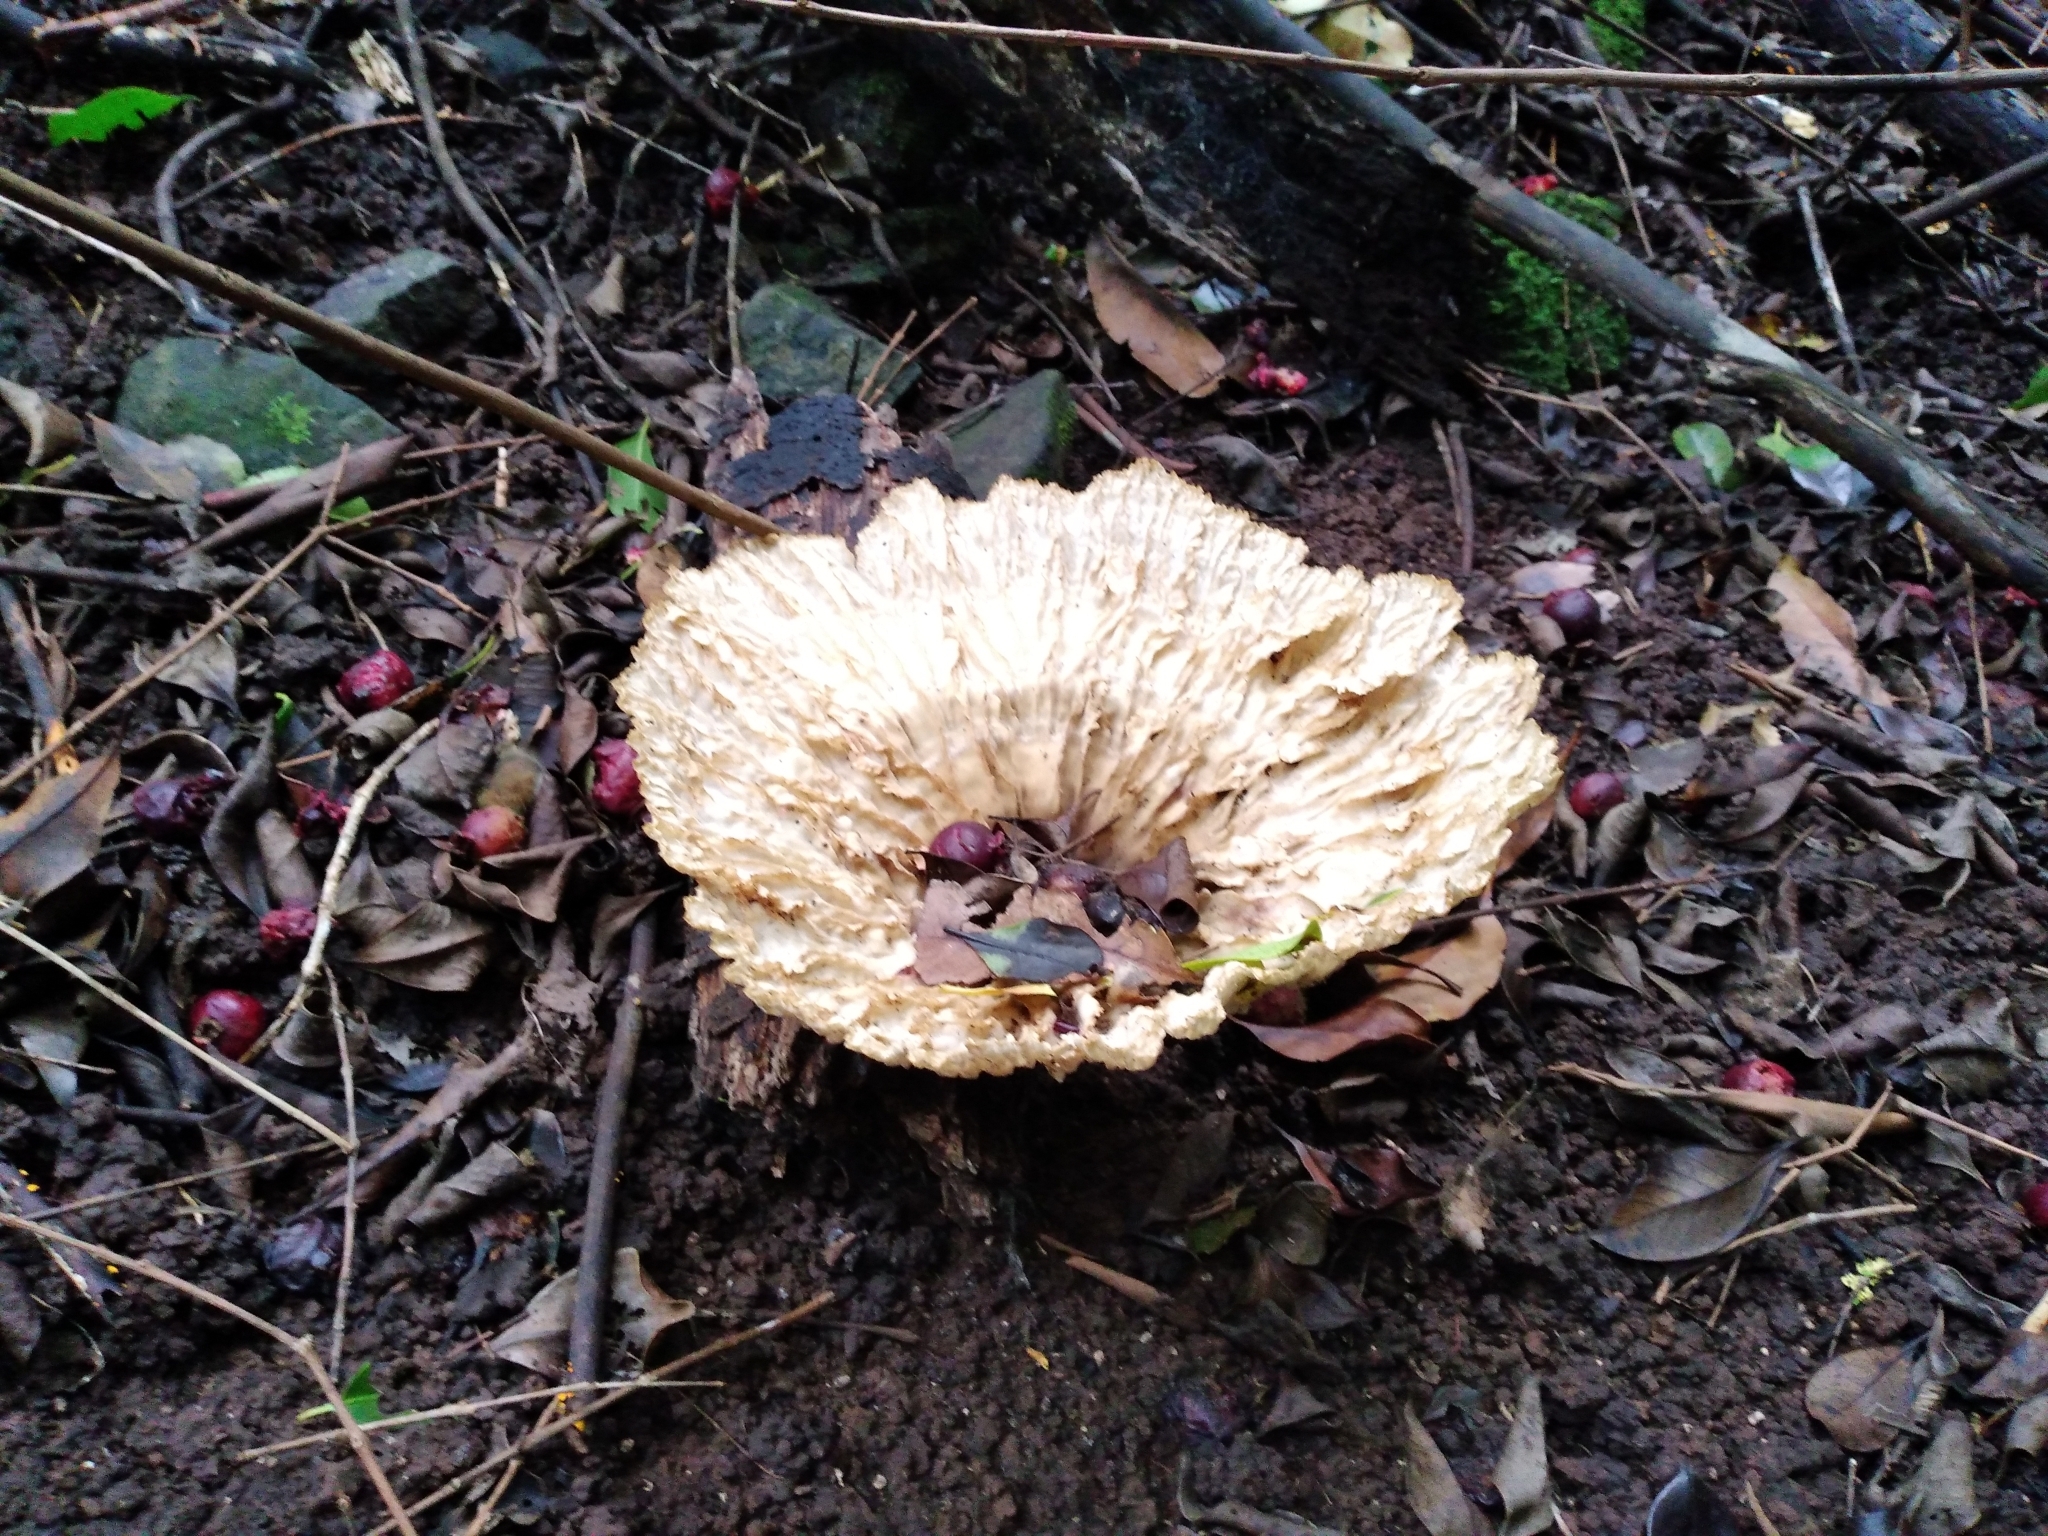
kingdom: Fungi
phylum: Basidiomycota
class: Agaricomycetes
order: Polyporales
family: Panaceae
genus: Cymatoderma
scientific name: Cymatoderma elegans
